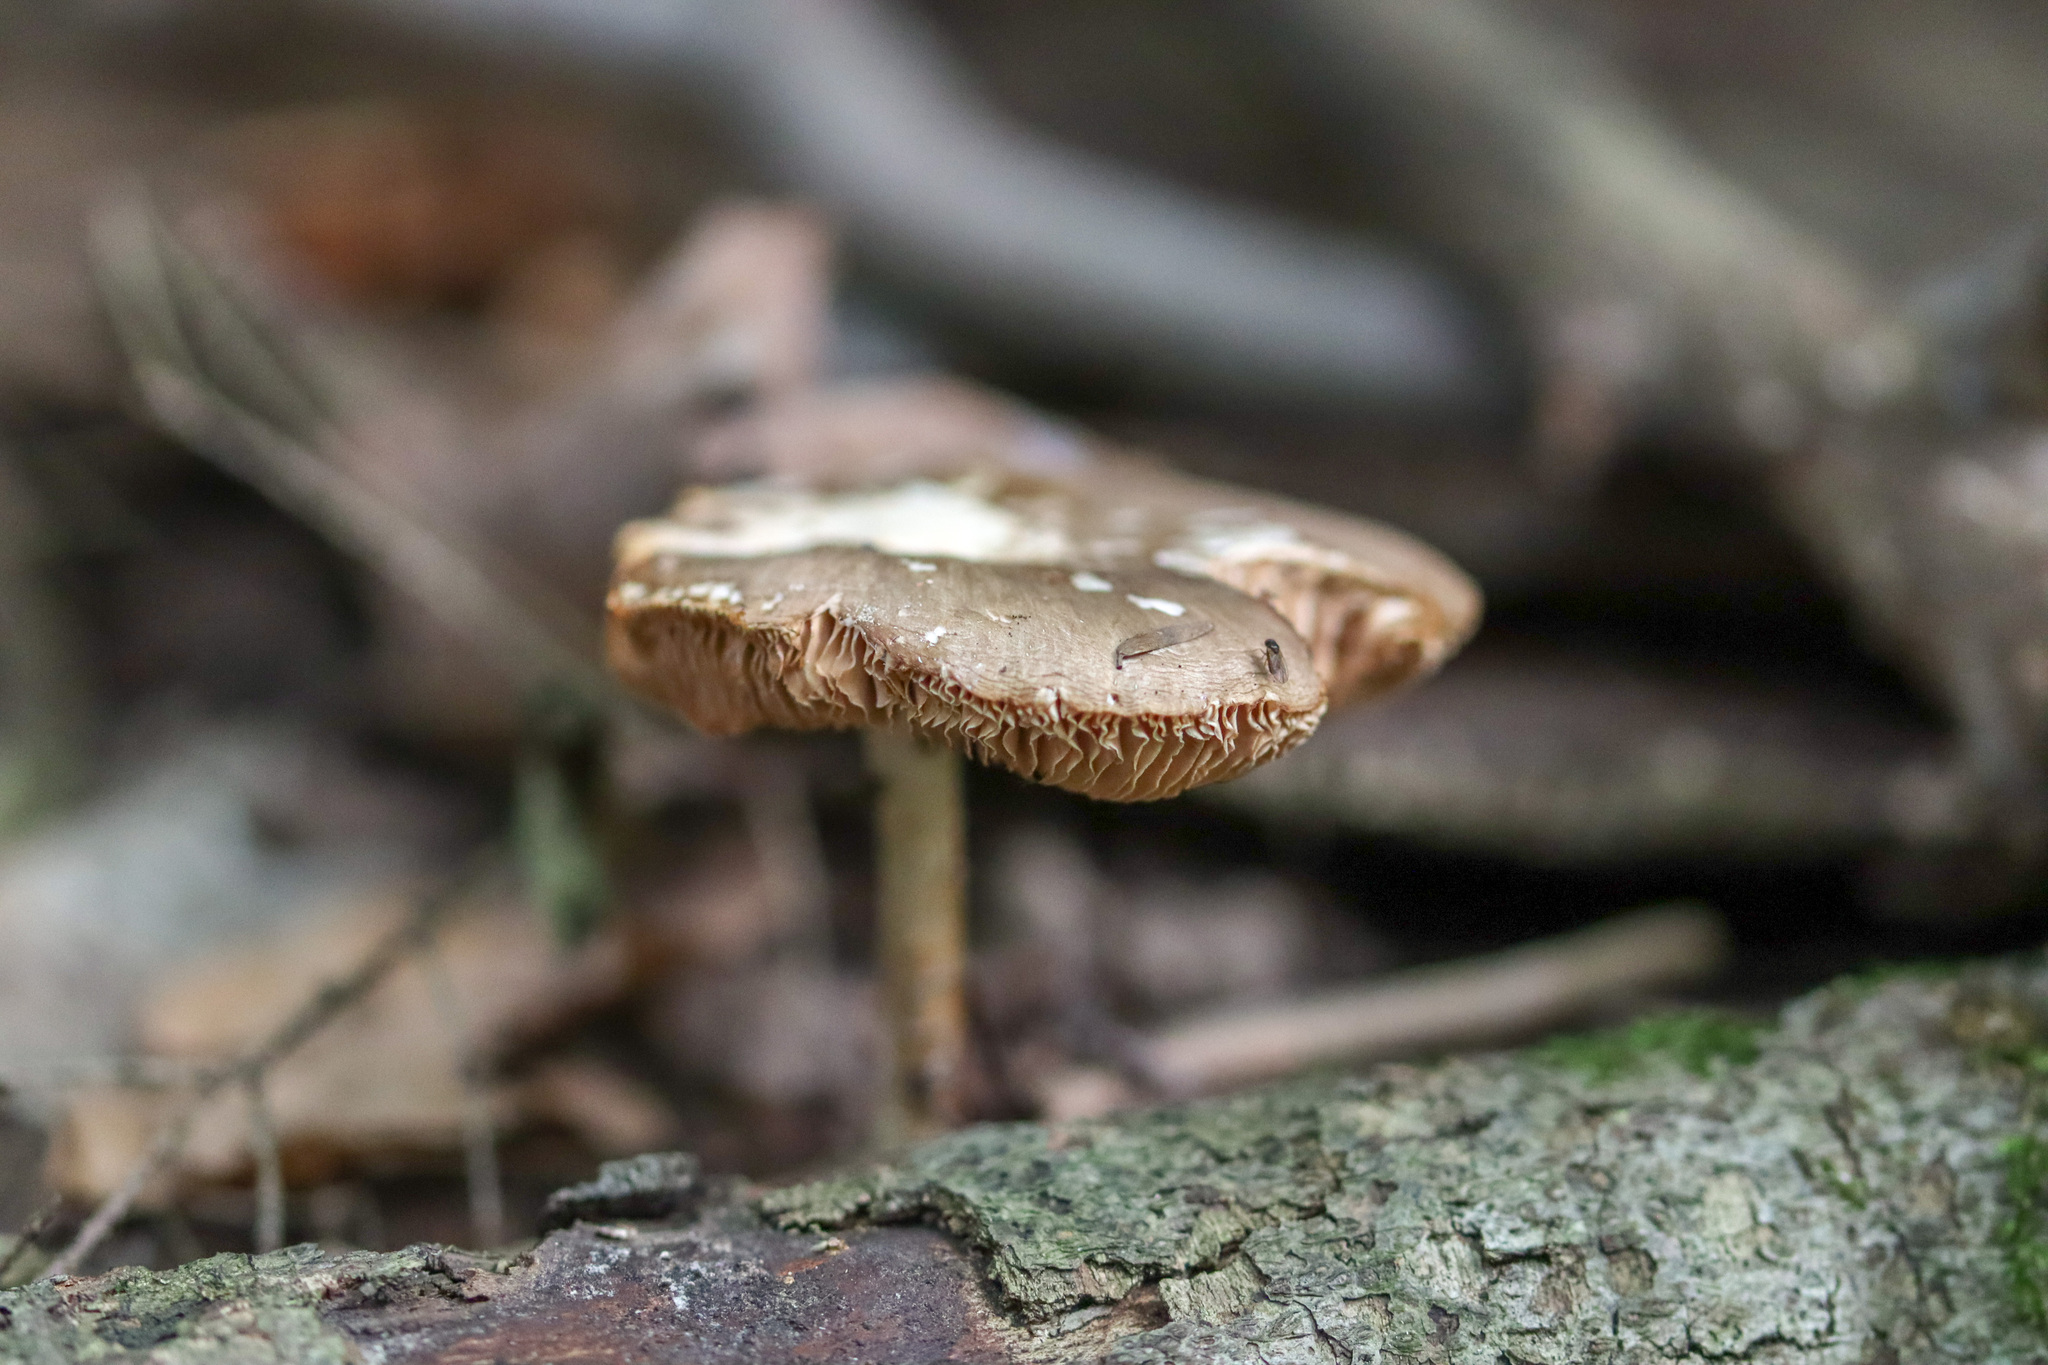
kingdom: Fungi
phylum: Basidiomycota
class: Agaricomycetes
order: Agaricales
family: Pluteaceae
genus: Pluteus
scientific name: Pluteus cervinus
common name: Deer shield
